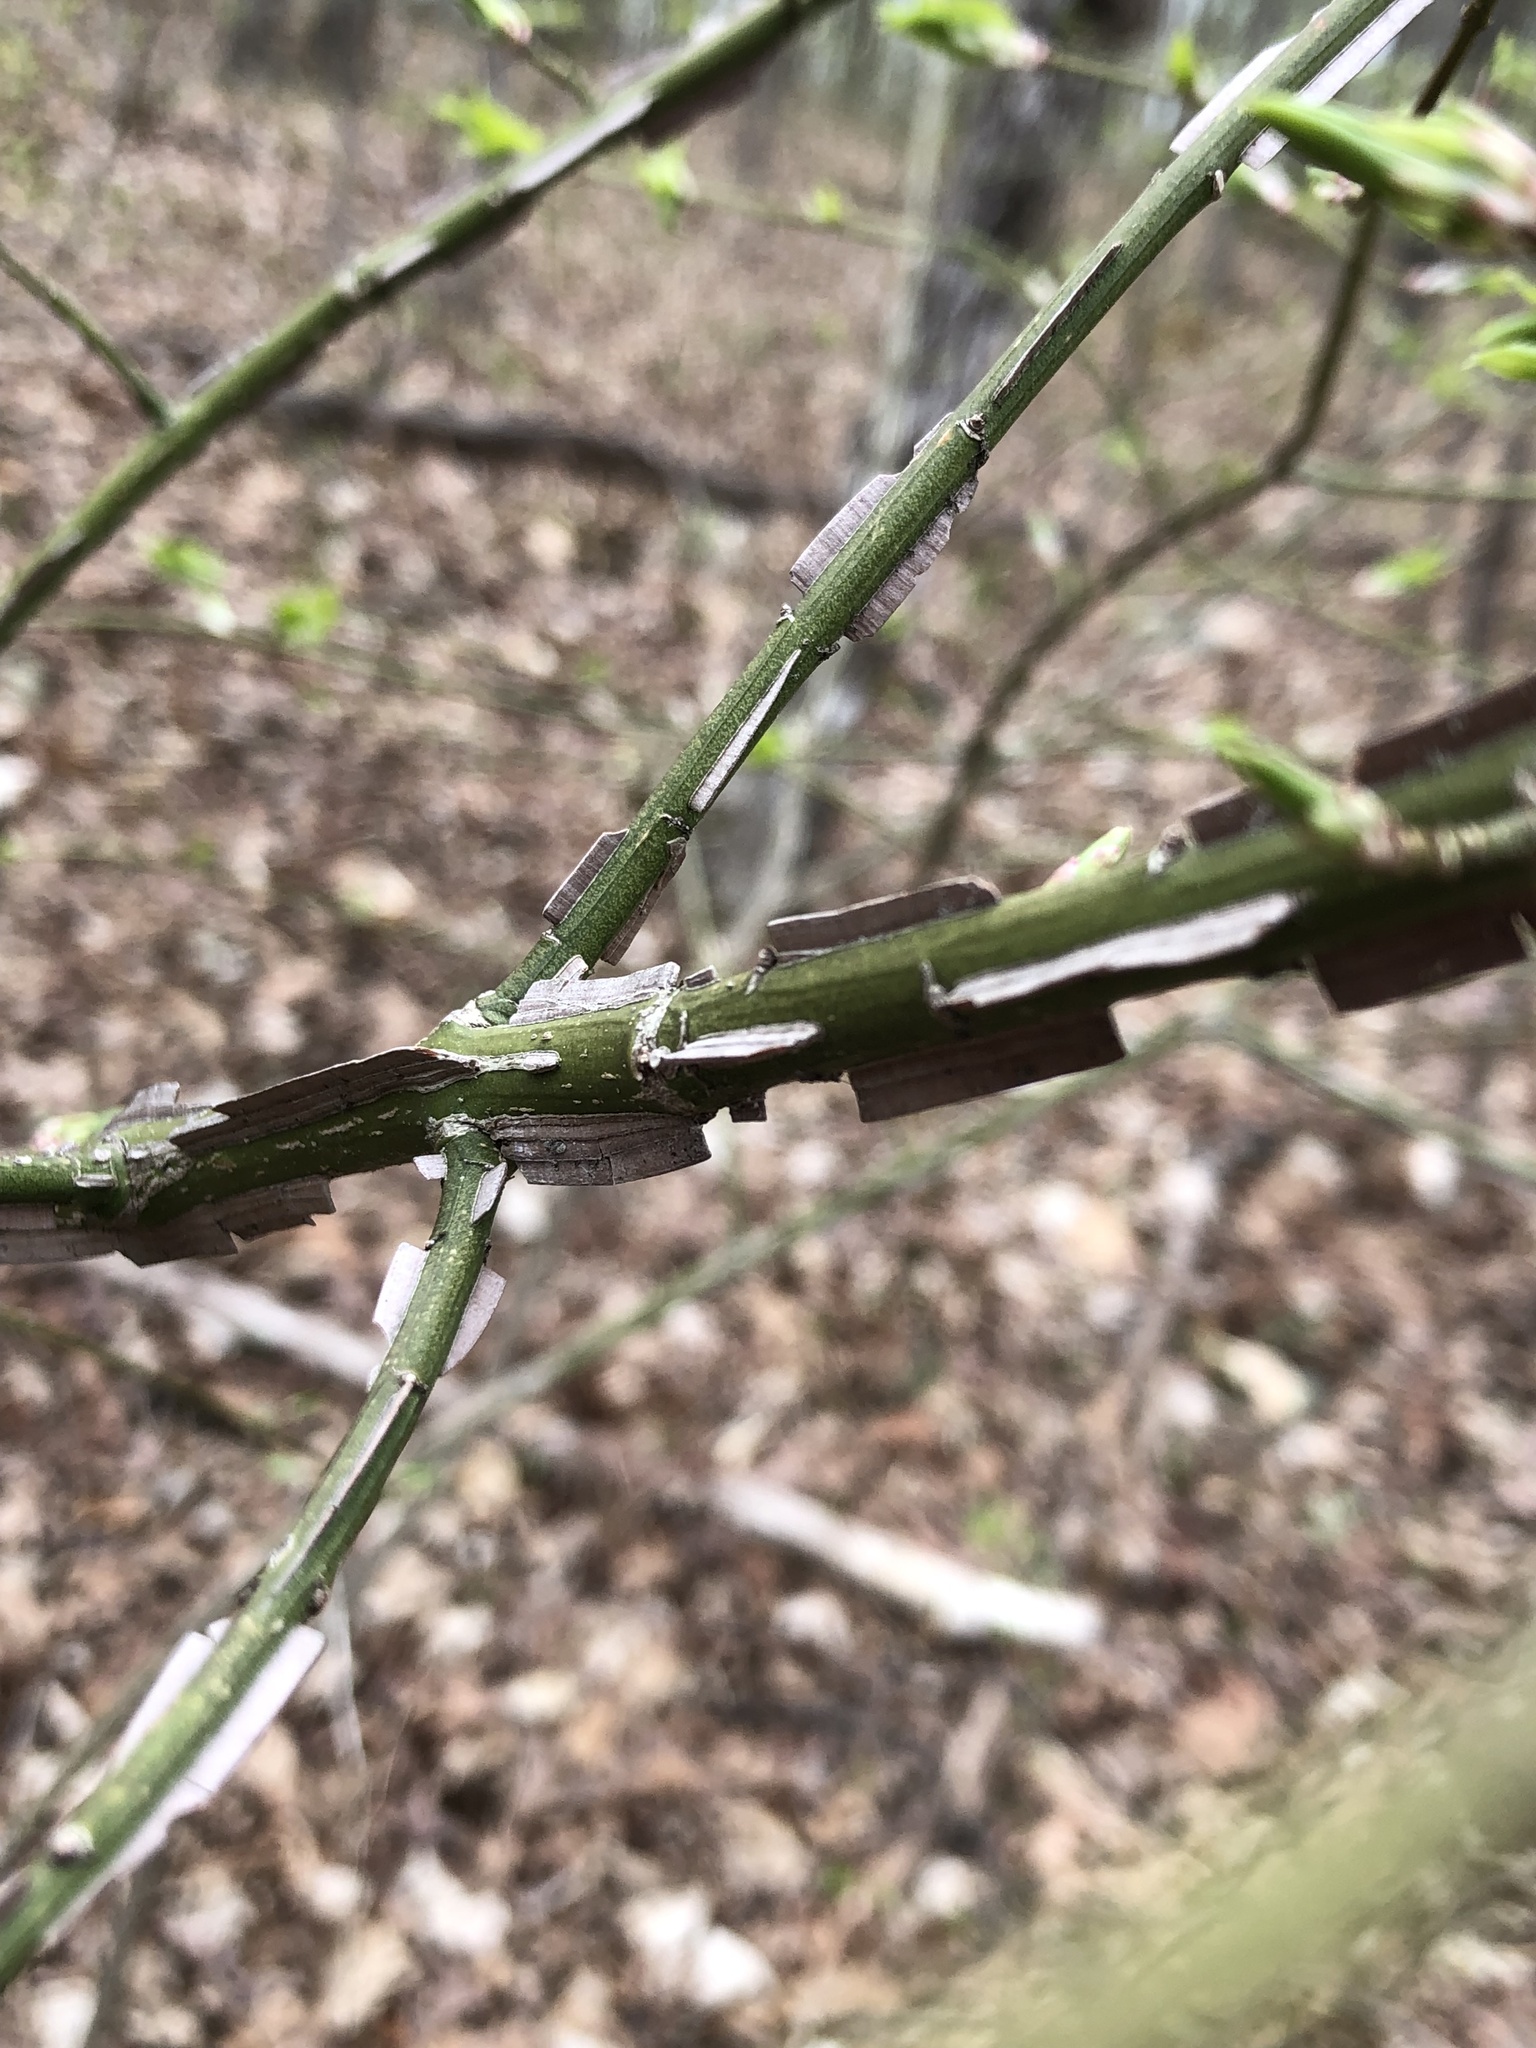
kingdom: Plantae
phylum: Tracheophyta
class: Magnoliopsida
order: Celastrales
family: Celastraceae
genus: Euonymus
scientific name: Euonymus alatus
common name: Winged euonymus
